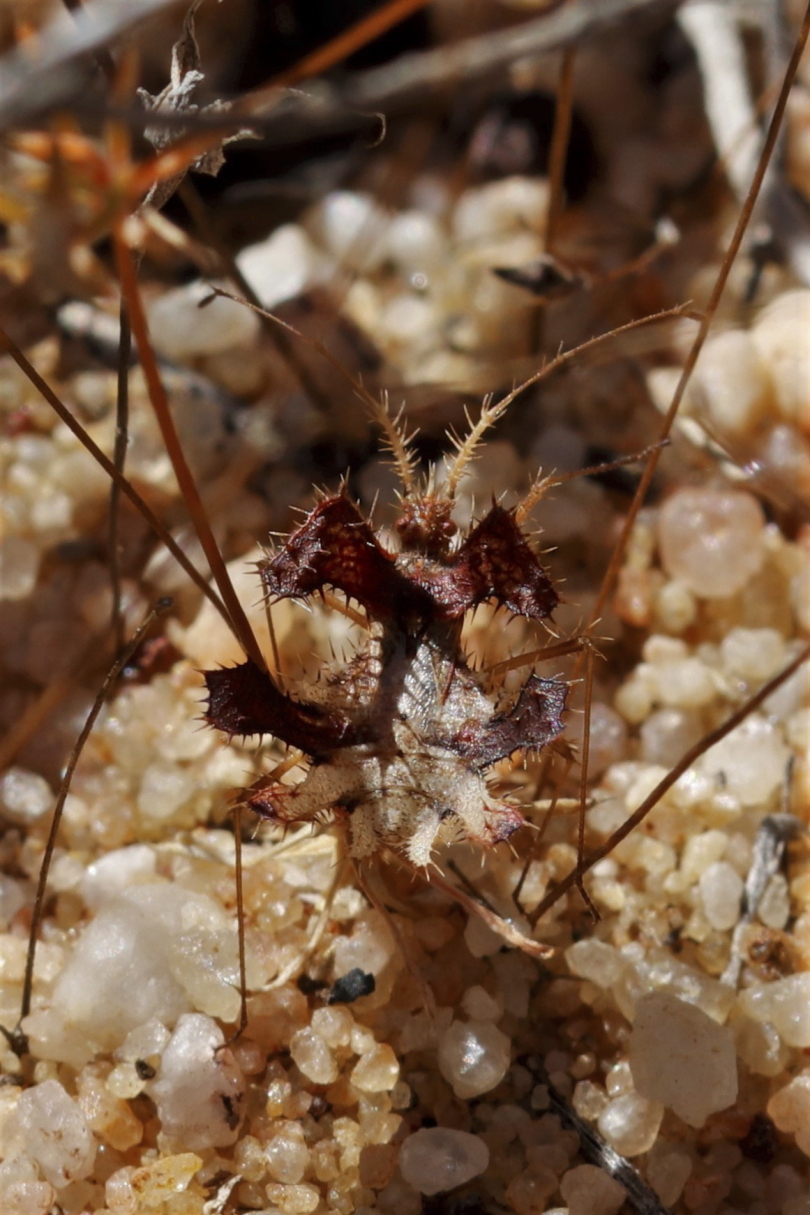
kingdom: Animalia
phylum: Arthropoda
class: Insecta
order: Hemiptera
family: Coreidae
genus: Pephricus
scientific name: Pephricus capicola
